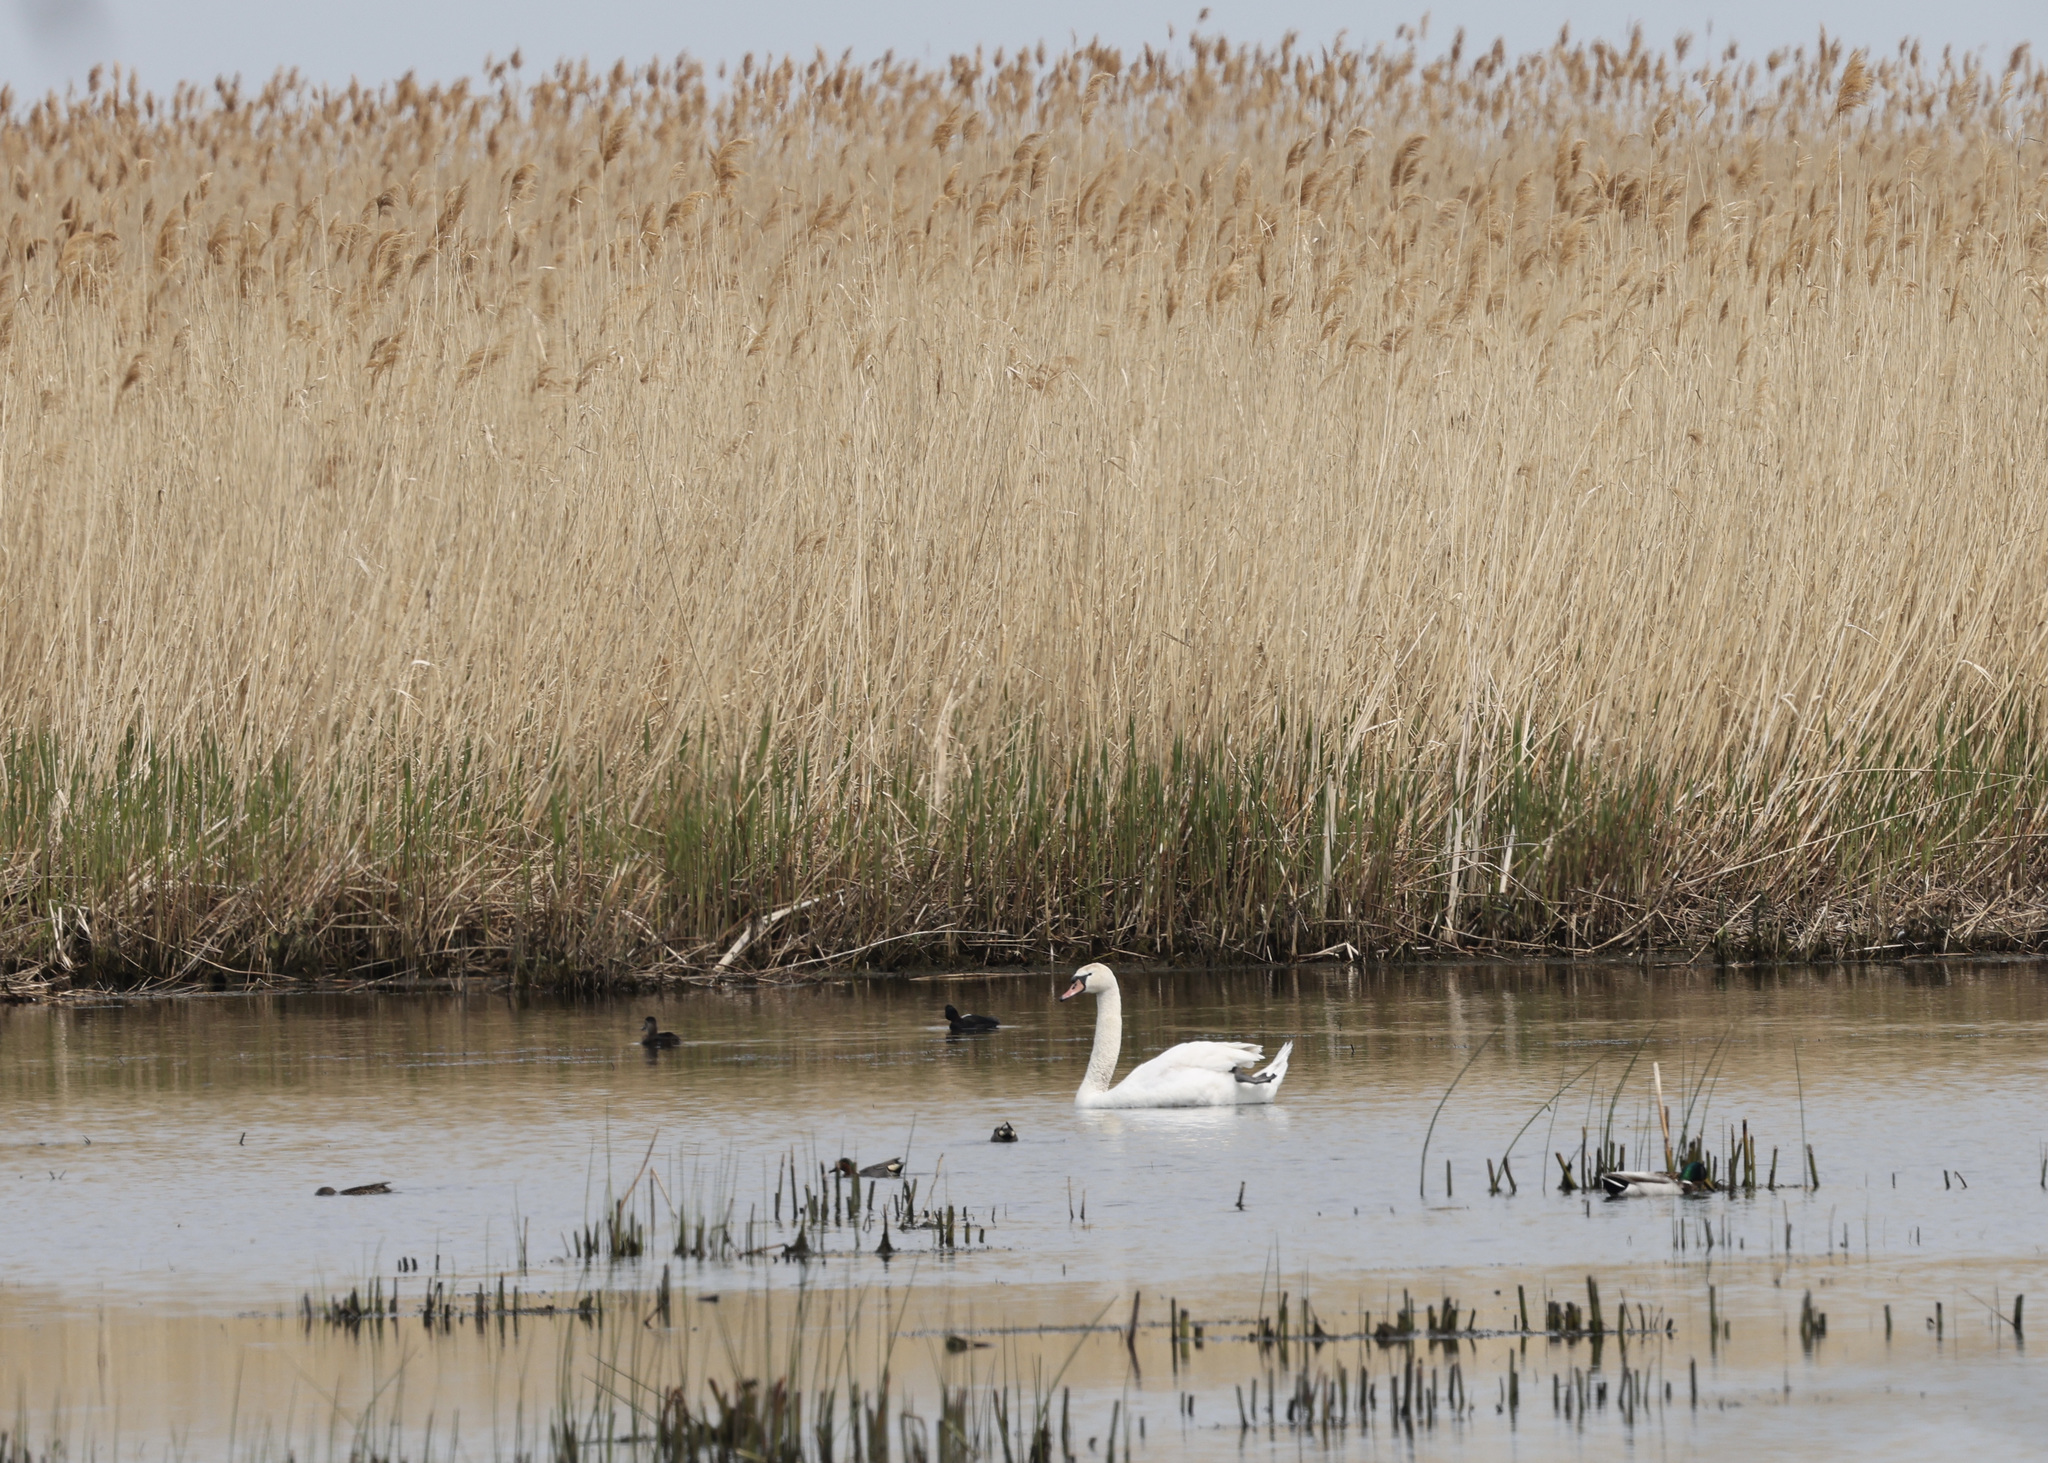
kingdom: Animalia
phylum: Chordata
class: Aves
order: Anseriformes
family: Anatidae
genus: Cygnus
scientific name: Cygnus olor
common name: Mute swan
